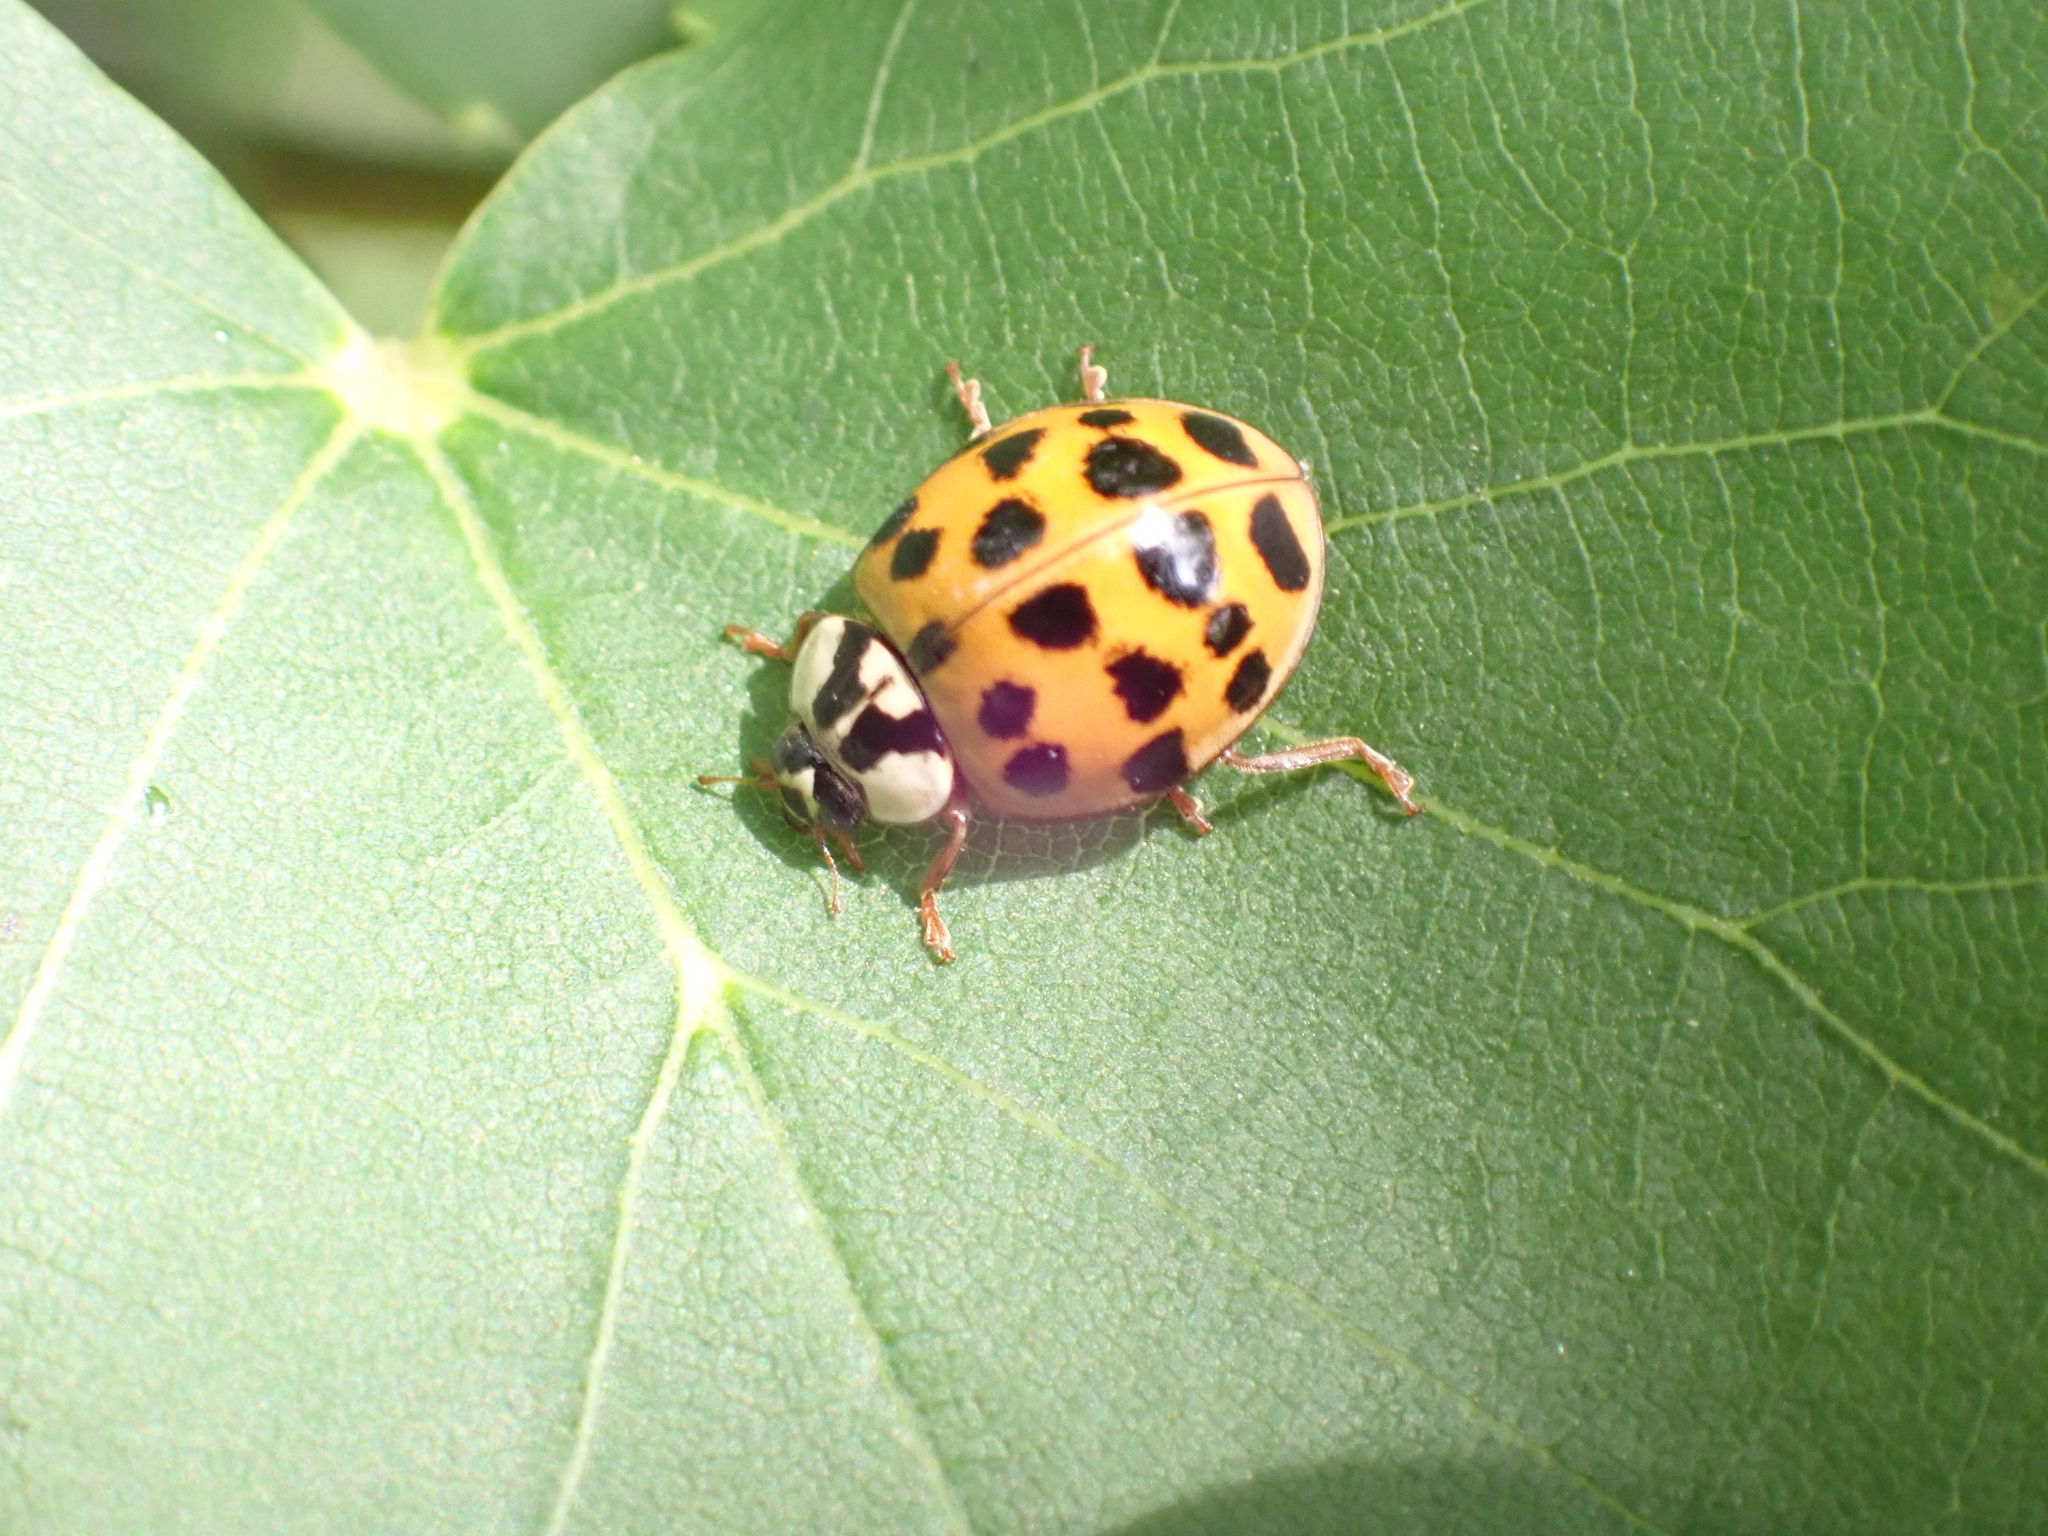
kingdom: Animalia
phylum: Arthropoda
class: Insecta
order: Coleoptera
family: Coccinellidae
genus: Harmonia
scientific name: Harmonia axyridis
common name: Harlequin ladybird
